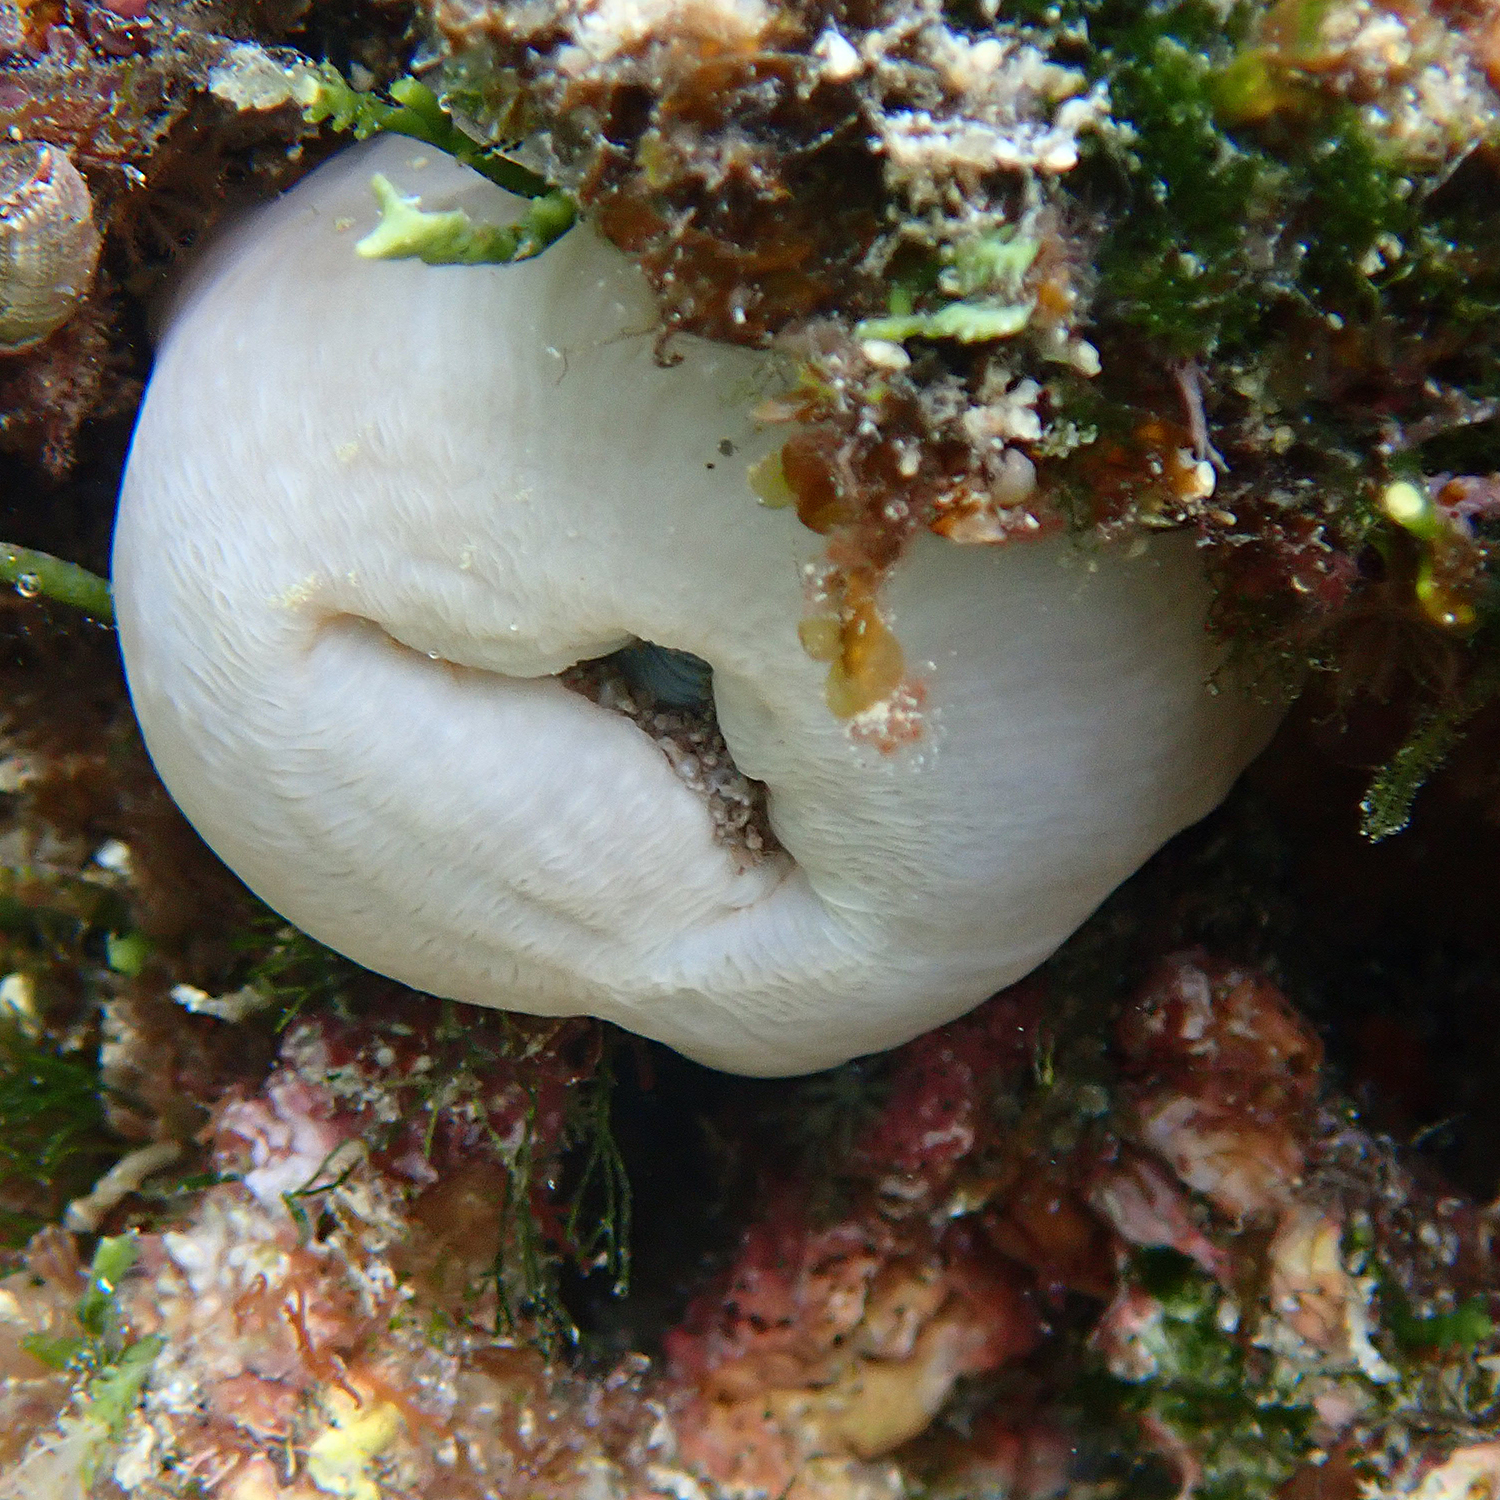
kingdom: Animalia
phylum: Cnidaria
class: Anthozoa
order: Actiniaria
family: Thalassianthidae
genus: Heterodactyla
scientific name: Heterodactyla hemprichii
